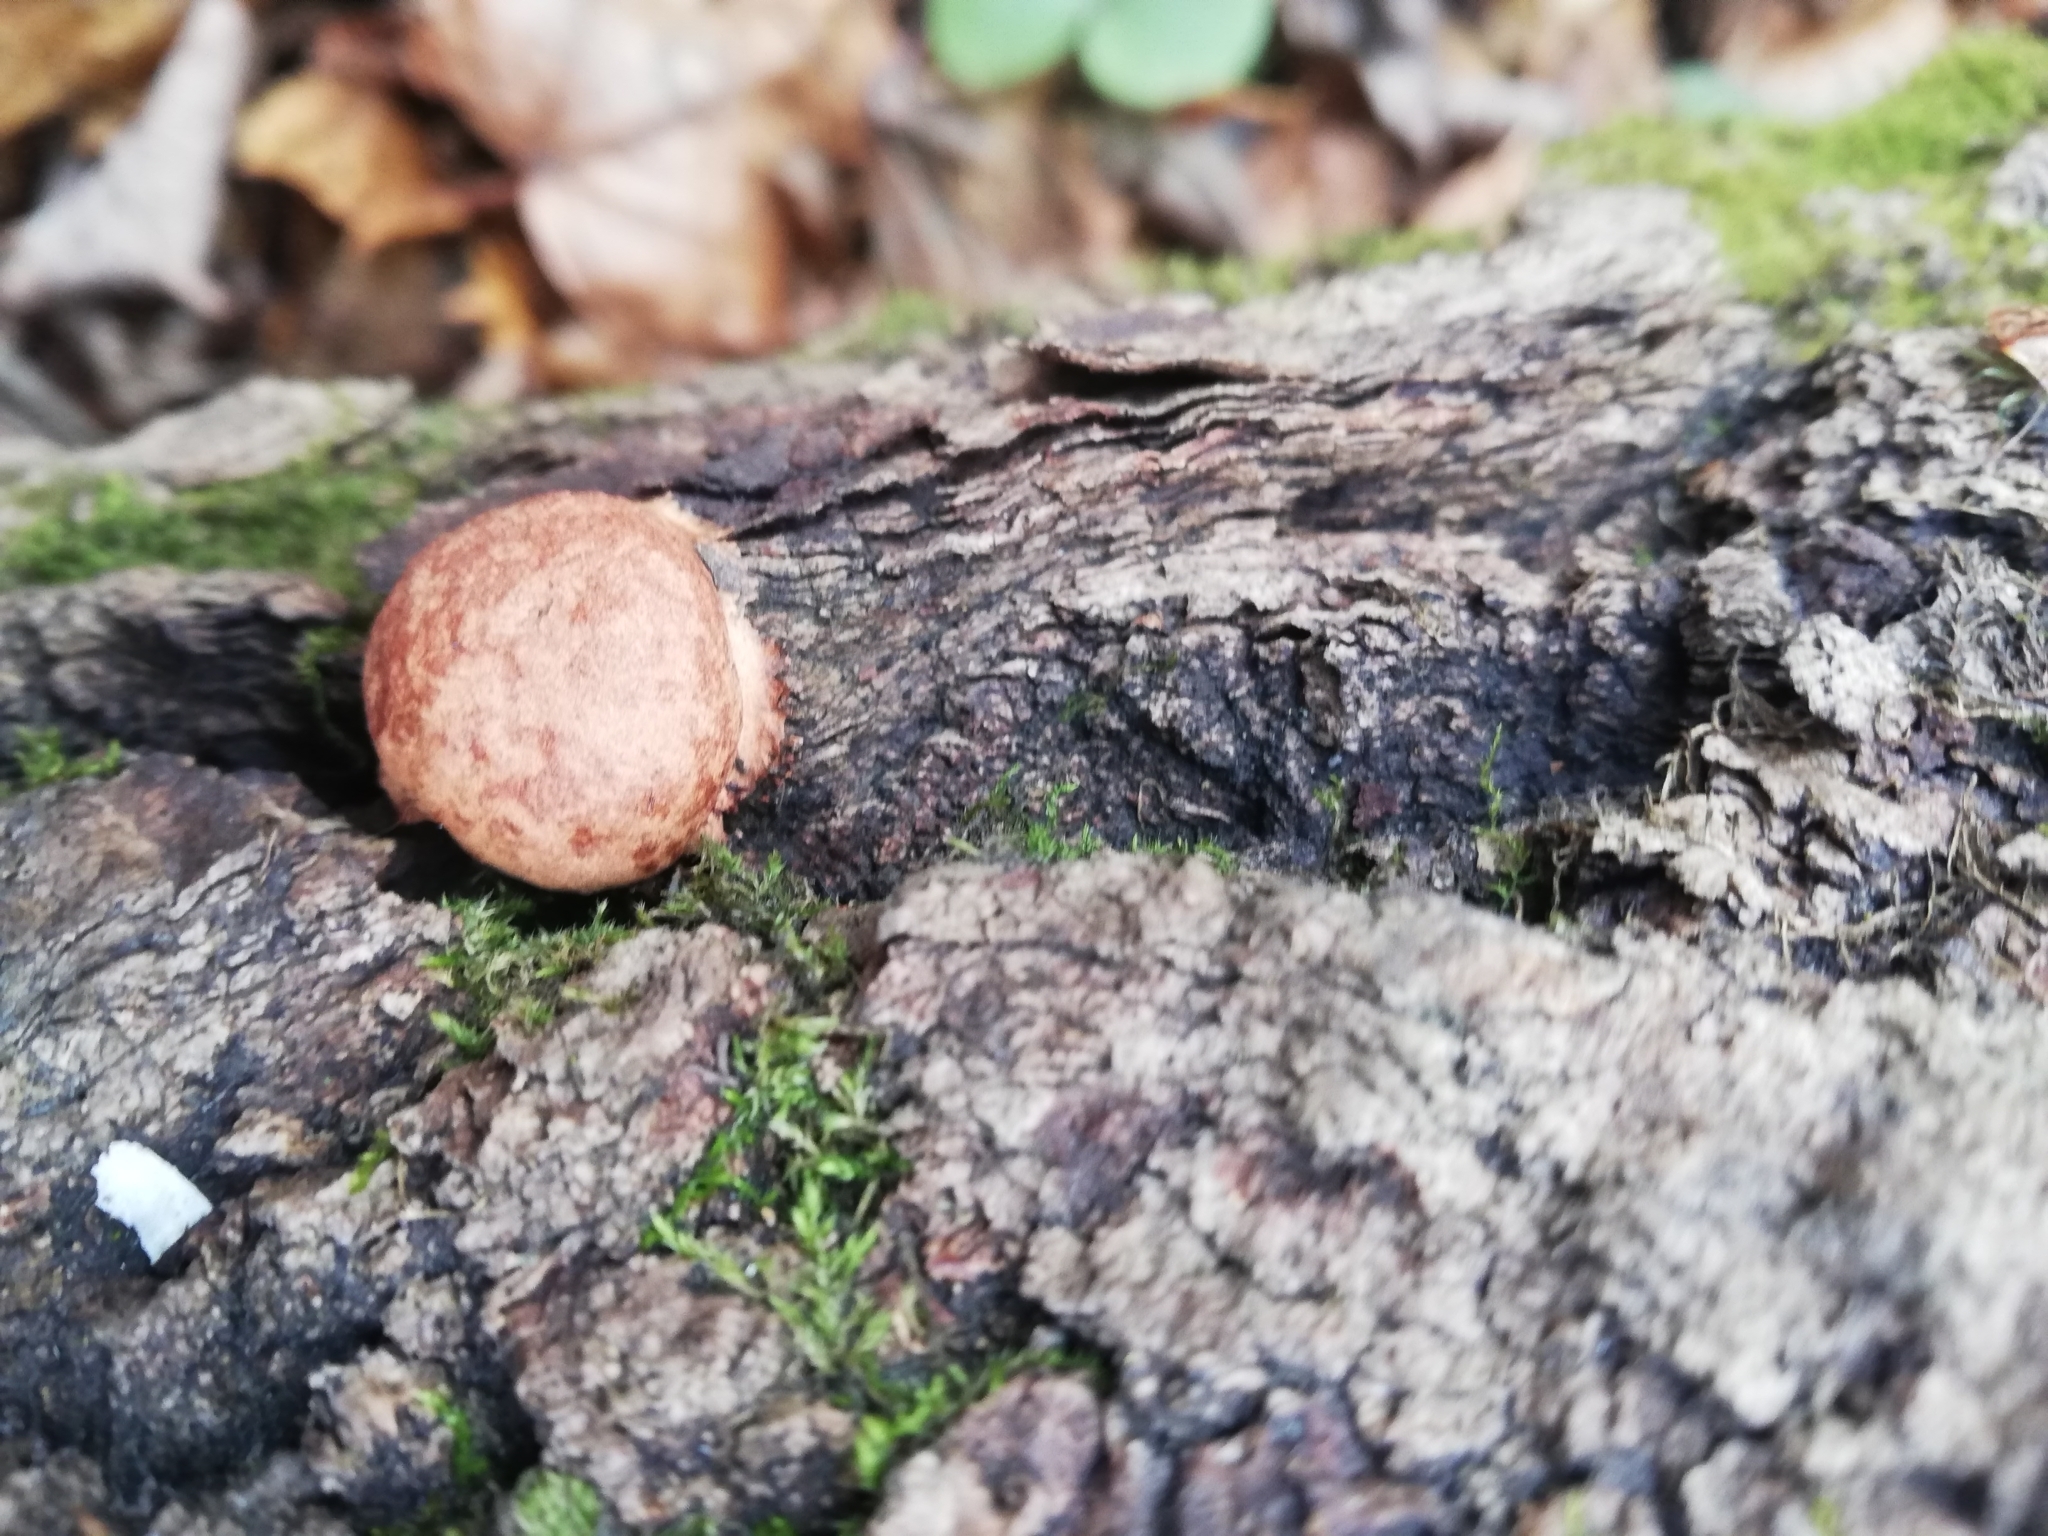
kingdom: Protozoa
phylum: Mycetozoa
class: Myxomycetes
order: Physarales
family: Physaraceae
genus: Fuligo
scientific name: Fuligo leviderma
